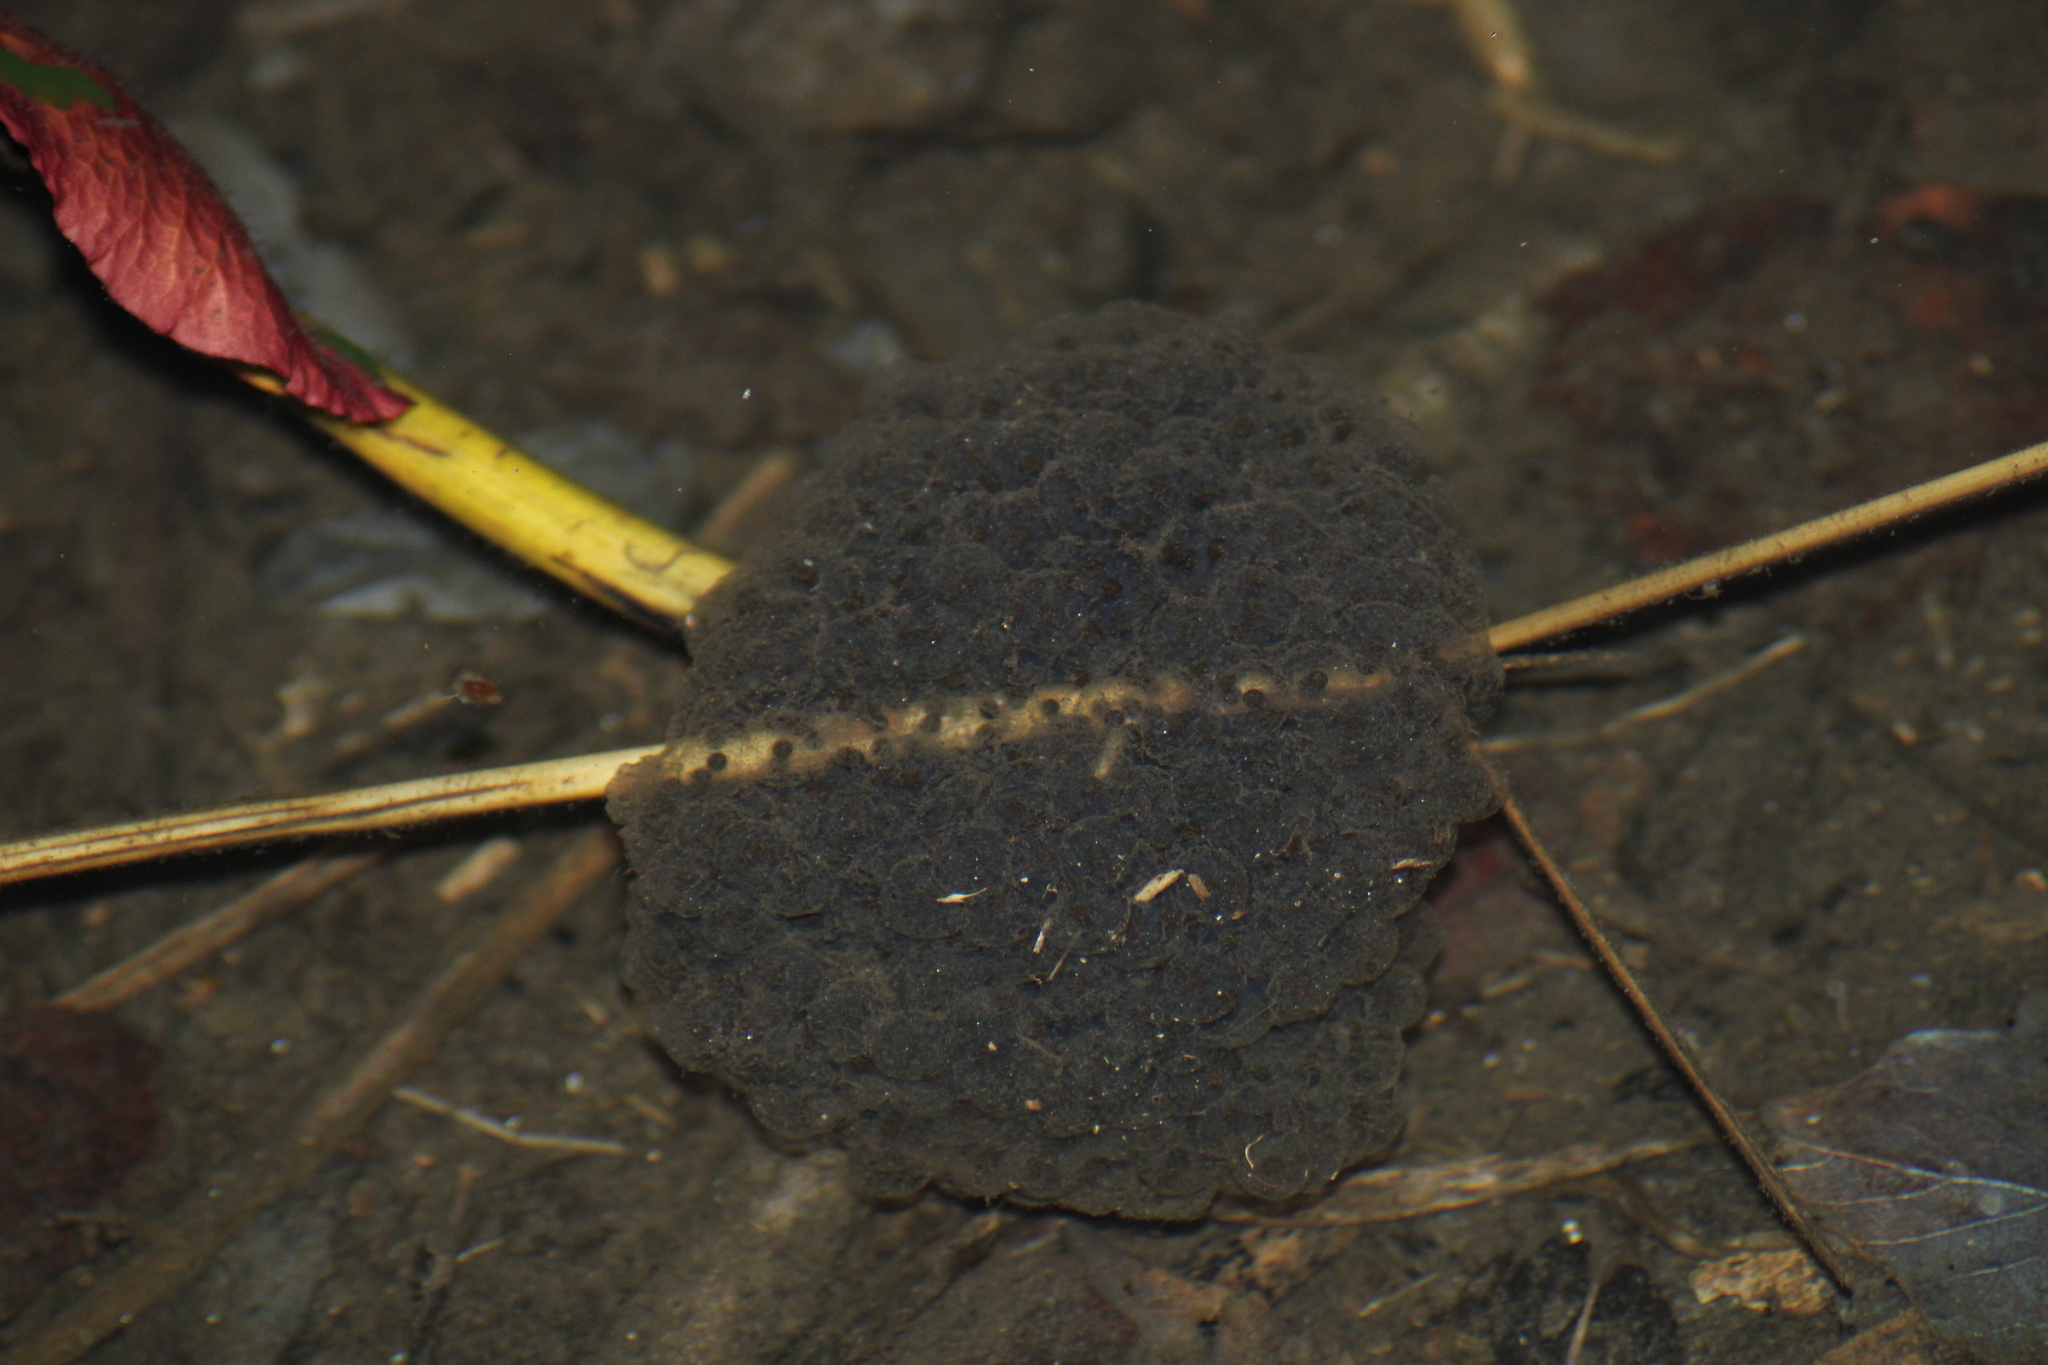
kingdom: Animalia
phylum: Chordata
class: Amphibia
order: Anura
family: Ranidae
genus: Rana
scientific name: Rana dalmatina
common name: Agile frog
